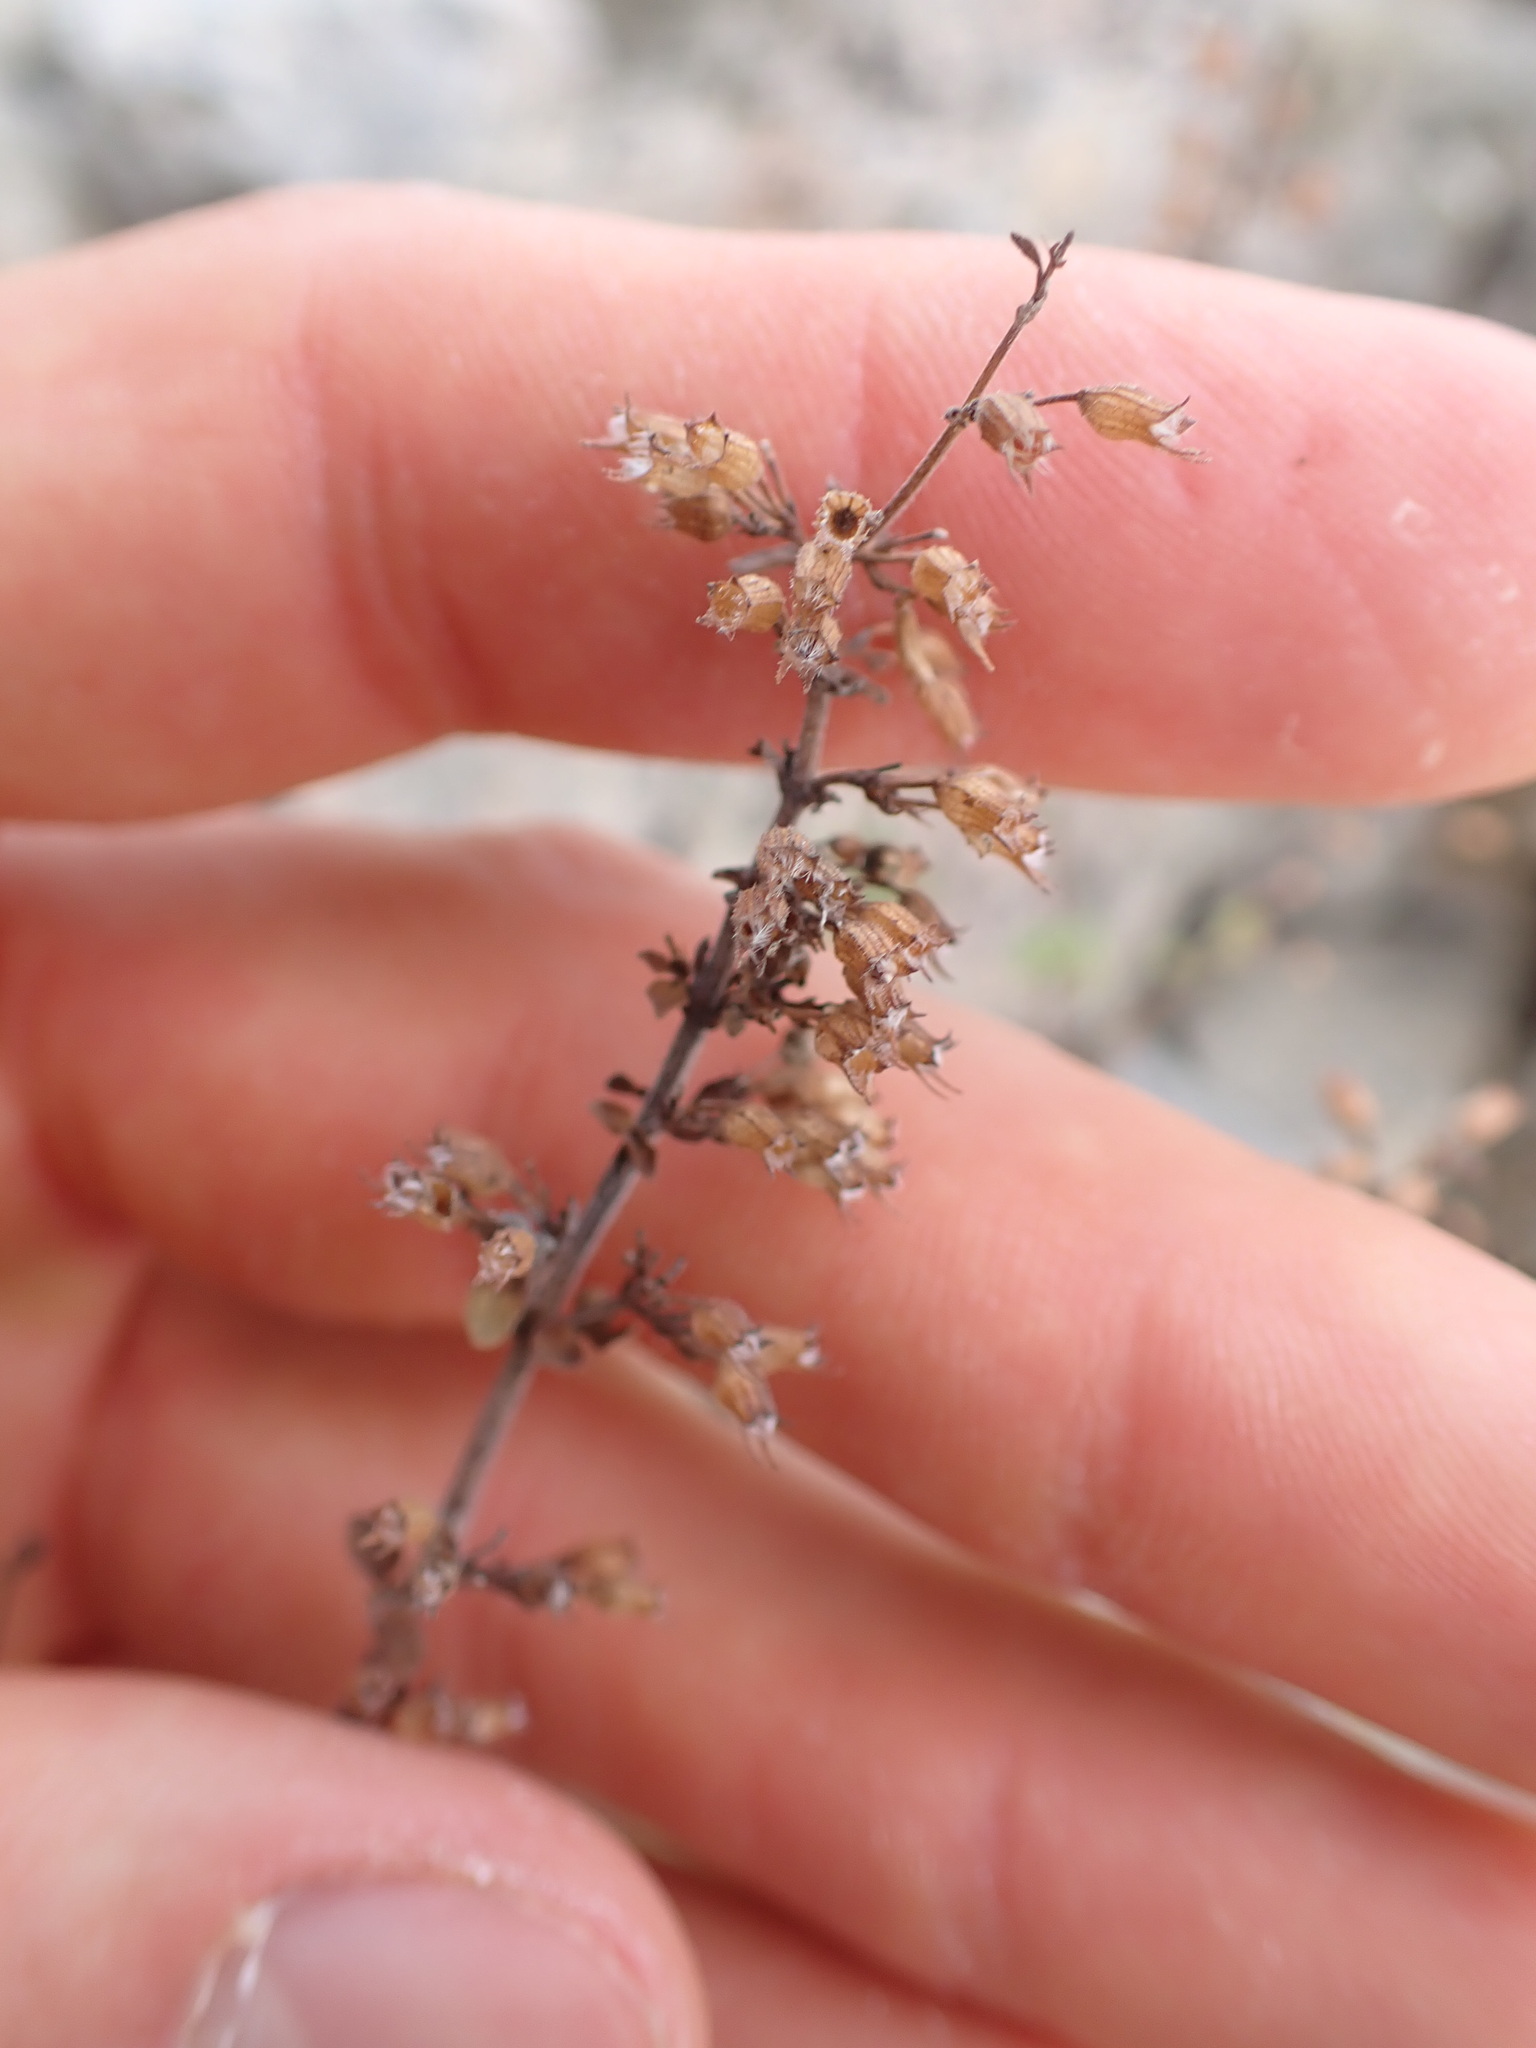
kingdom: Plantae
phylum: Tracheophyta
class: Magnoliopsida
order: Lamiales
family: Lamiaceae
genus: Clinopodium
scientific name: Clinopodium nepeta
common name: Lesser calamint
